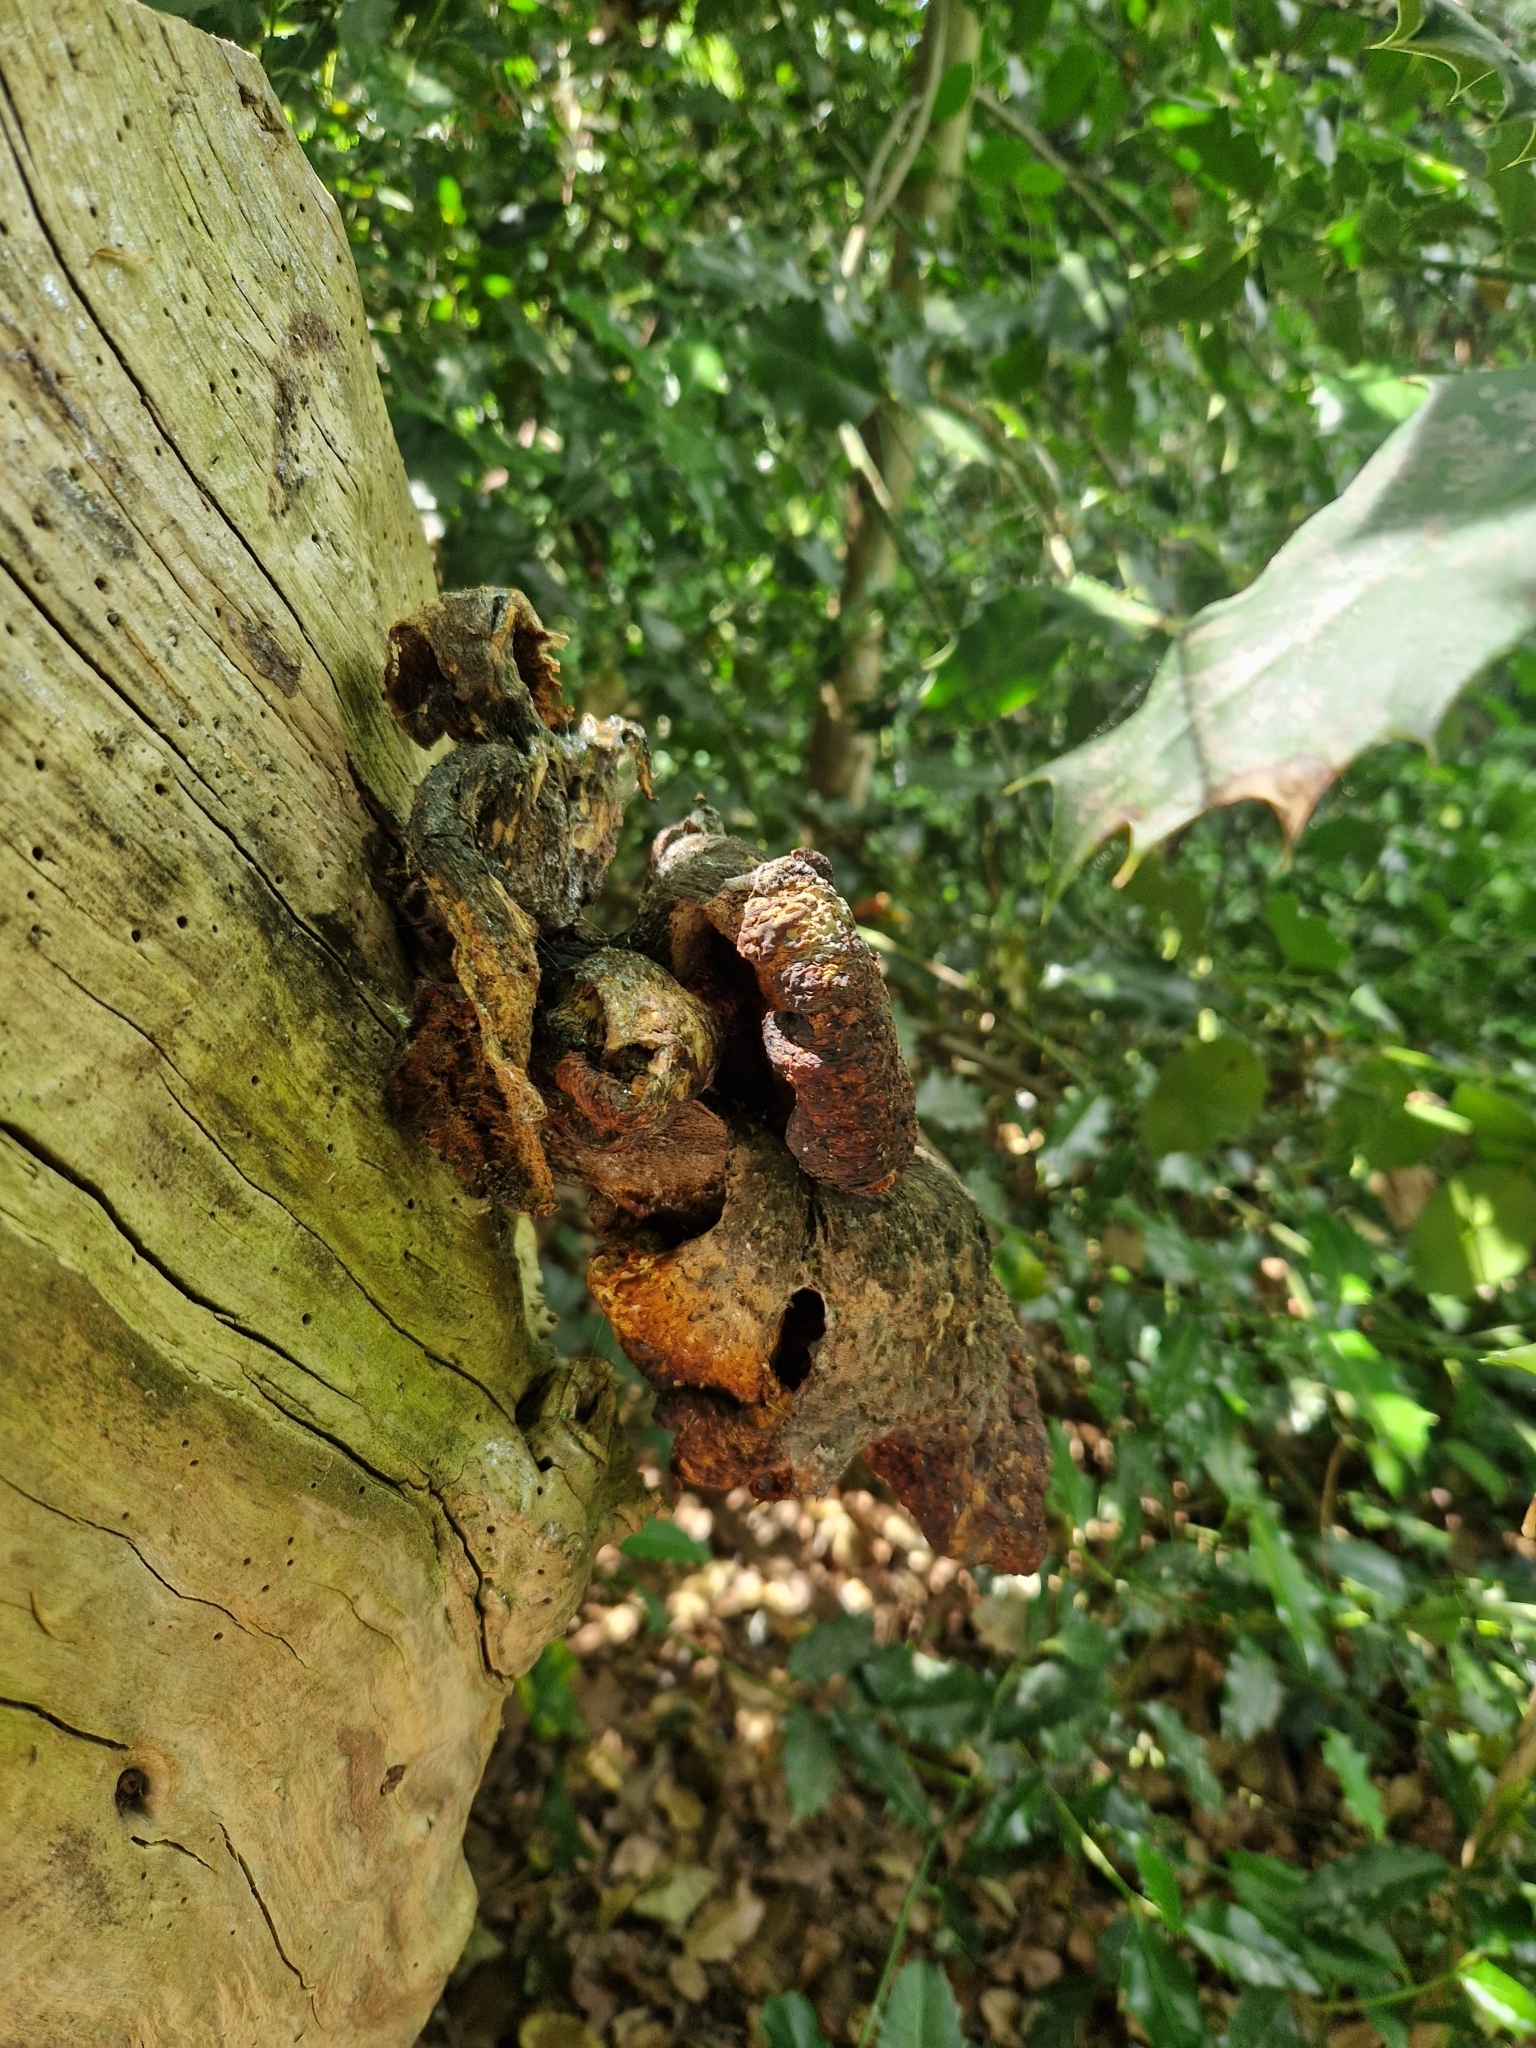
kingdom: Fungi
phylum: Basidiomycota
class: Agaricomycetes
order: Polyporales
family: Polyporaceae
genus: Cerioporus
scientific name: Cerioporus squamosus
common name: Dryad's saddle
